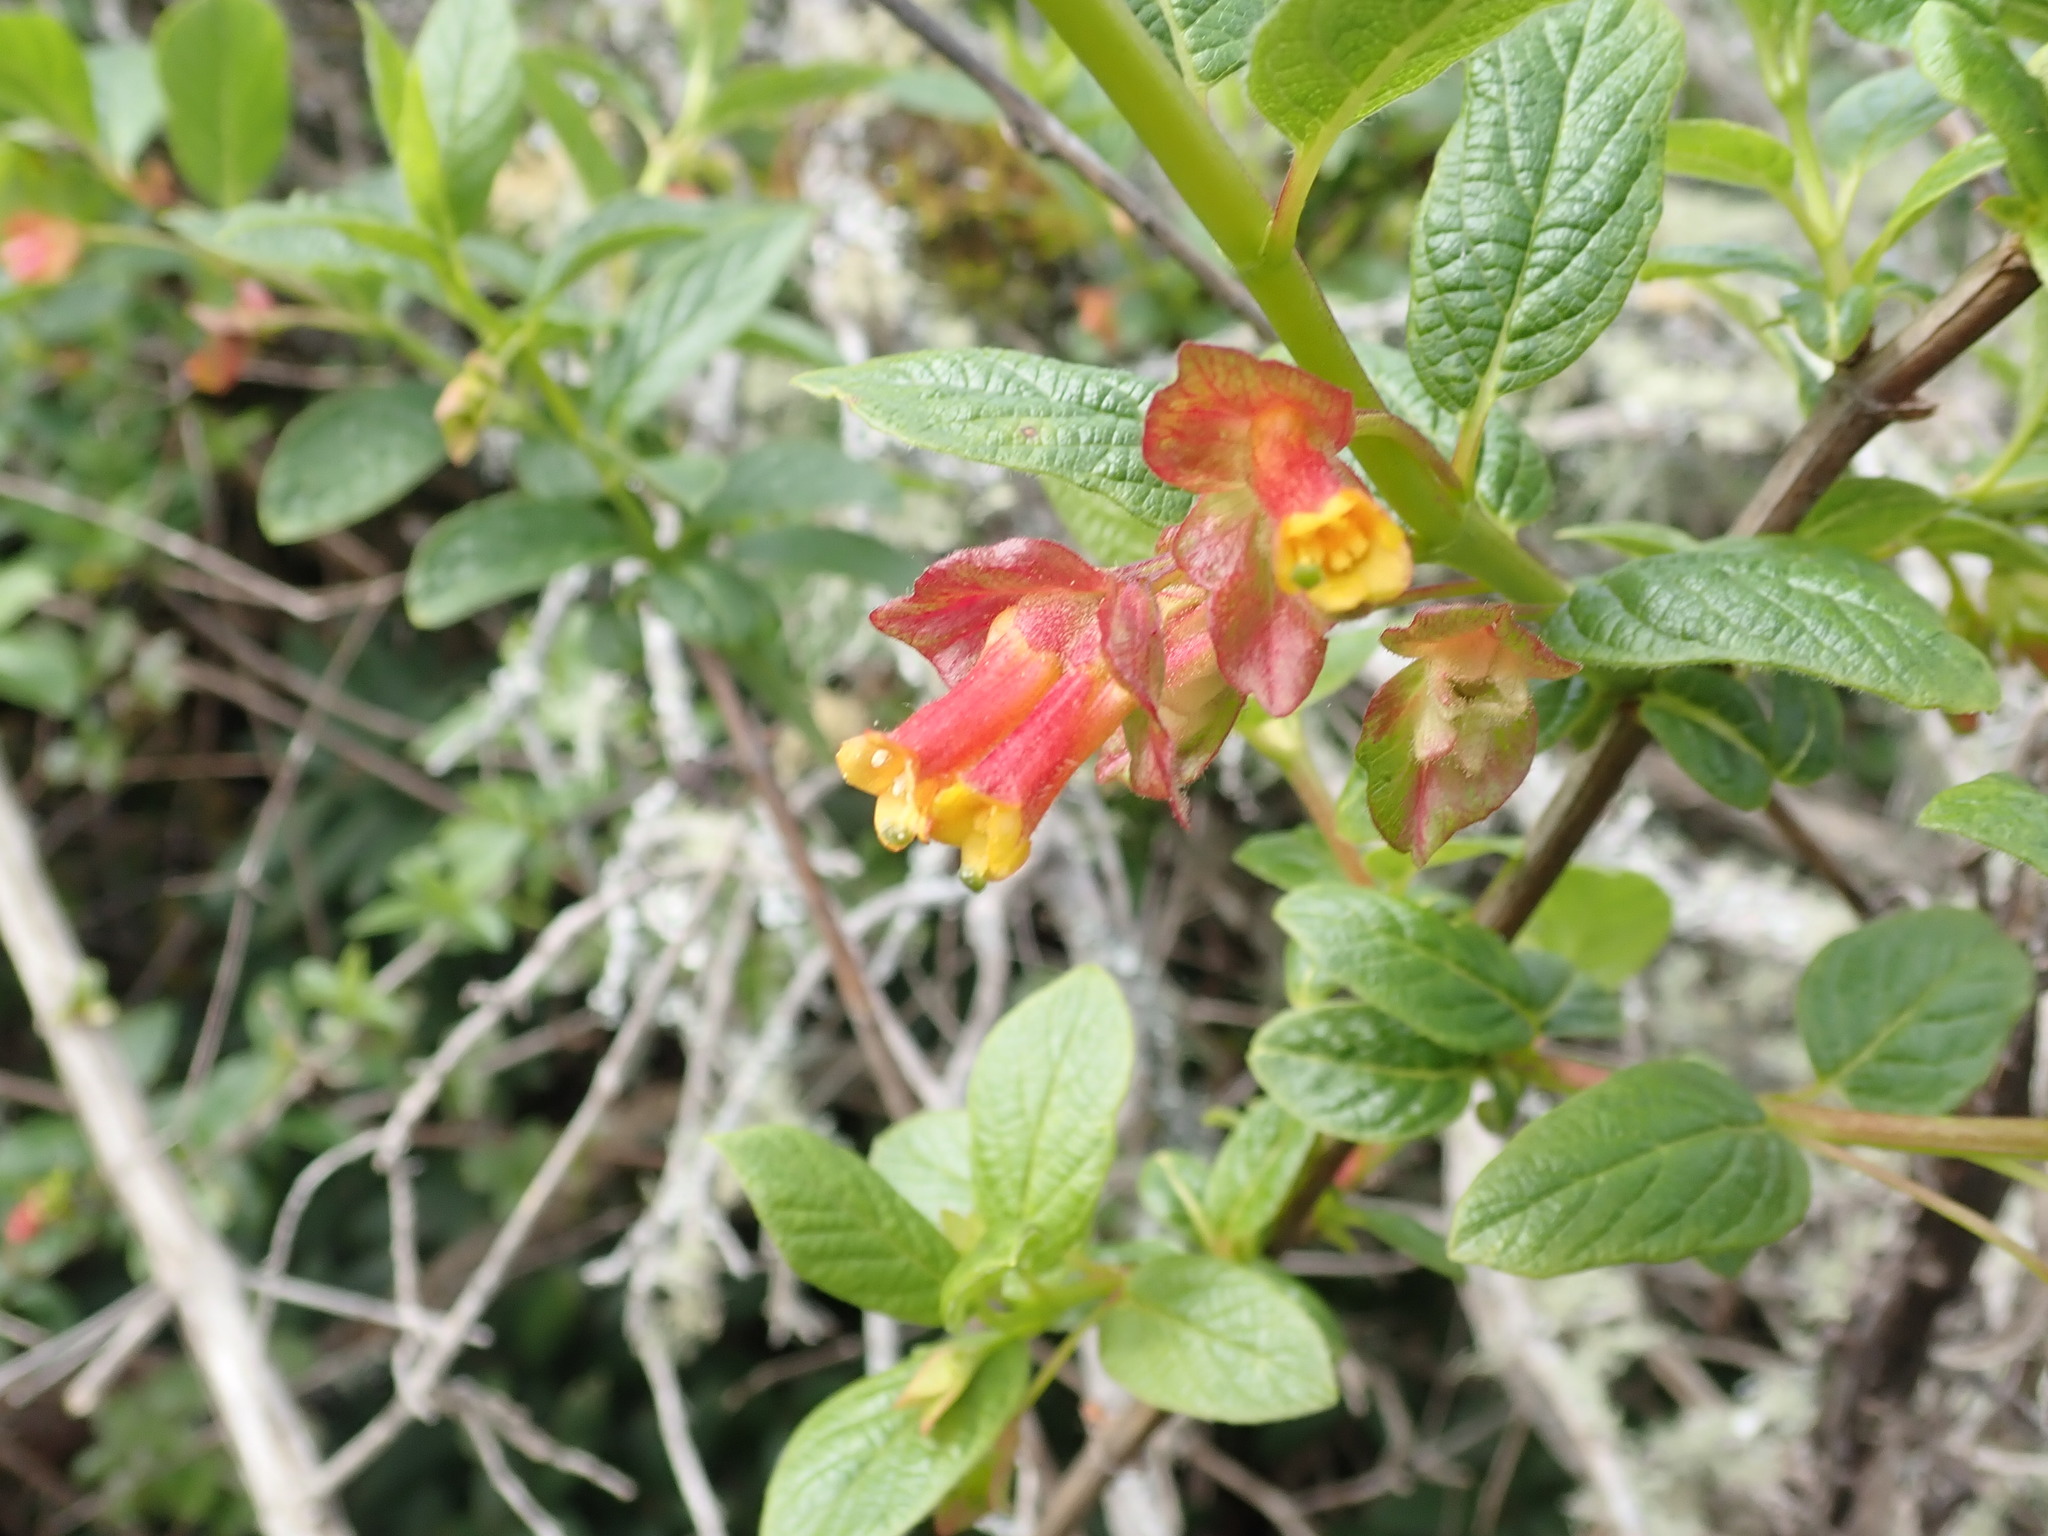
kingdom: Plantae
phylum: Tracheophyta
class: Magnoliopsida
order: Dipsacales
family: Caprifoliaceae
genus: Lonicera
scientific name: Lonicera involucrata
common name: Californian honeysuckle
